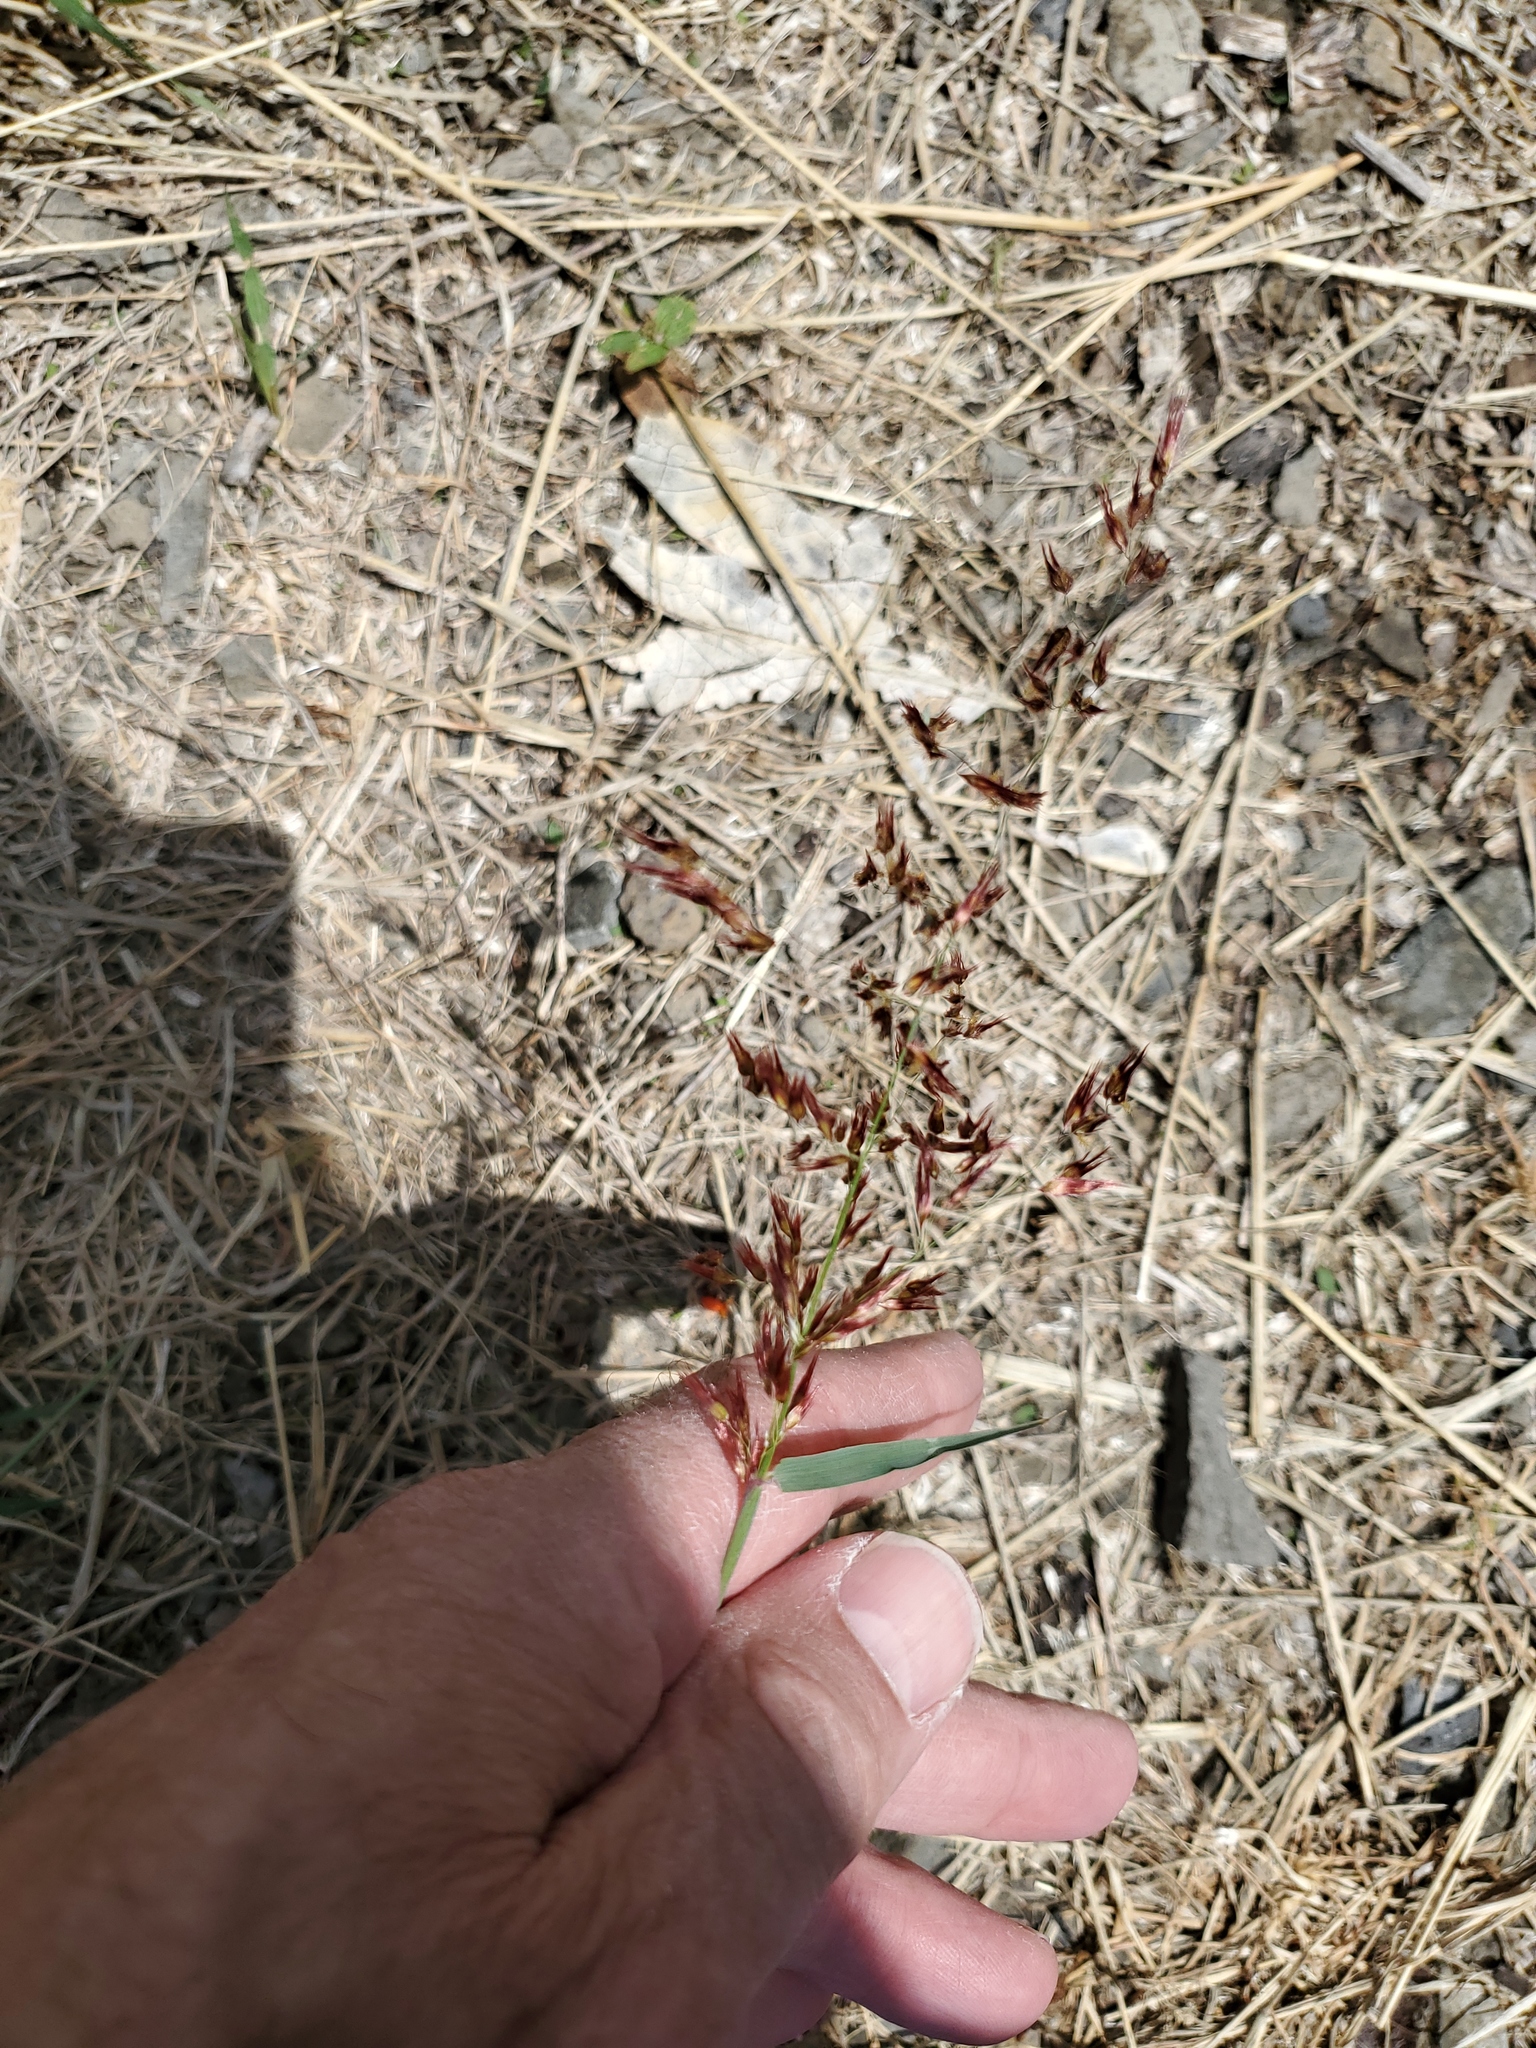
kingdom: Plantae
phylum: Tracheophyta
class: Liliopsida
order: Poales
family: Poaceae
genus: Melinis
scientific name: Melinis repens
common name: Rose natal grass
